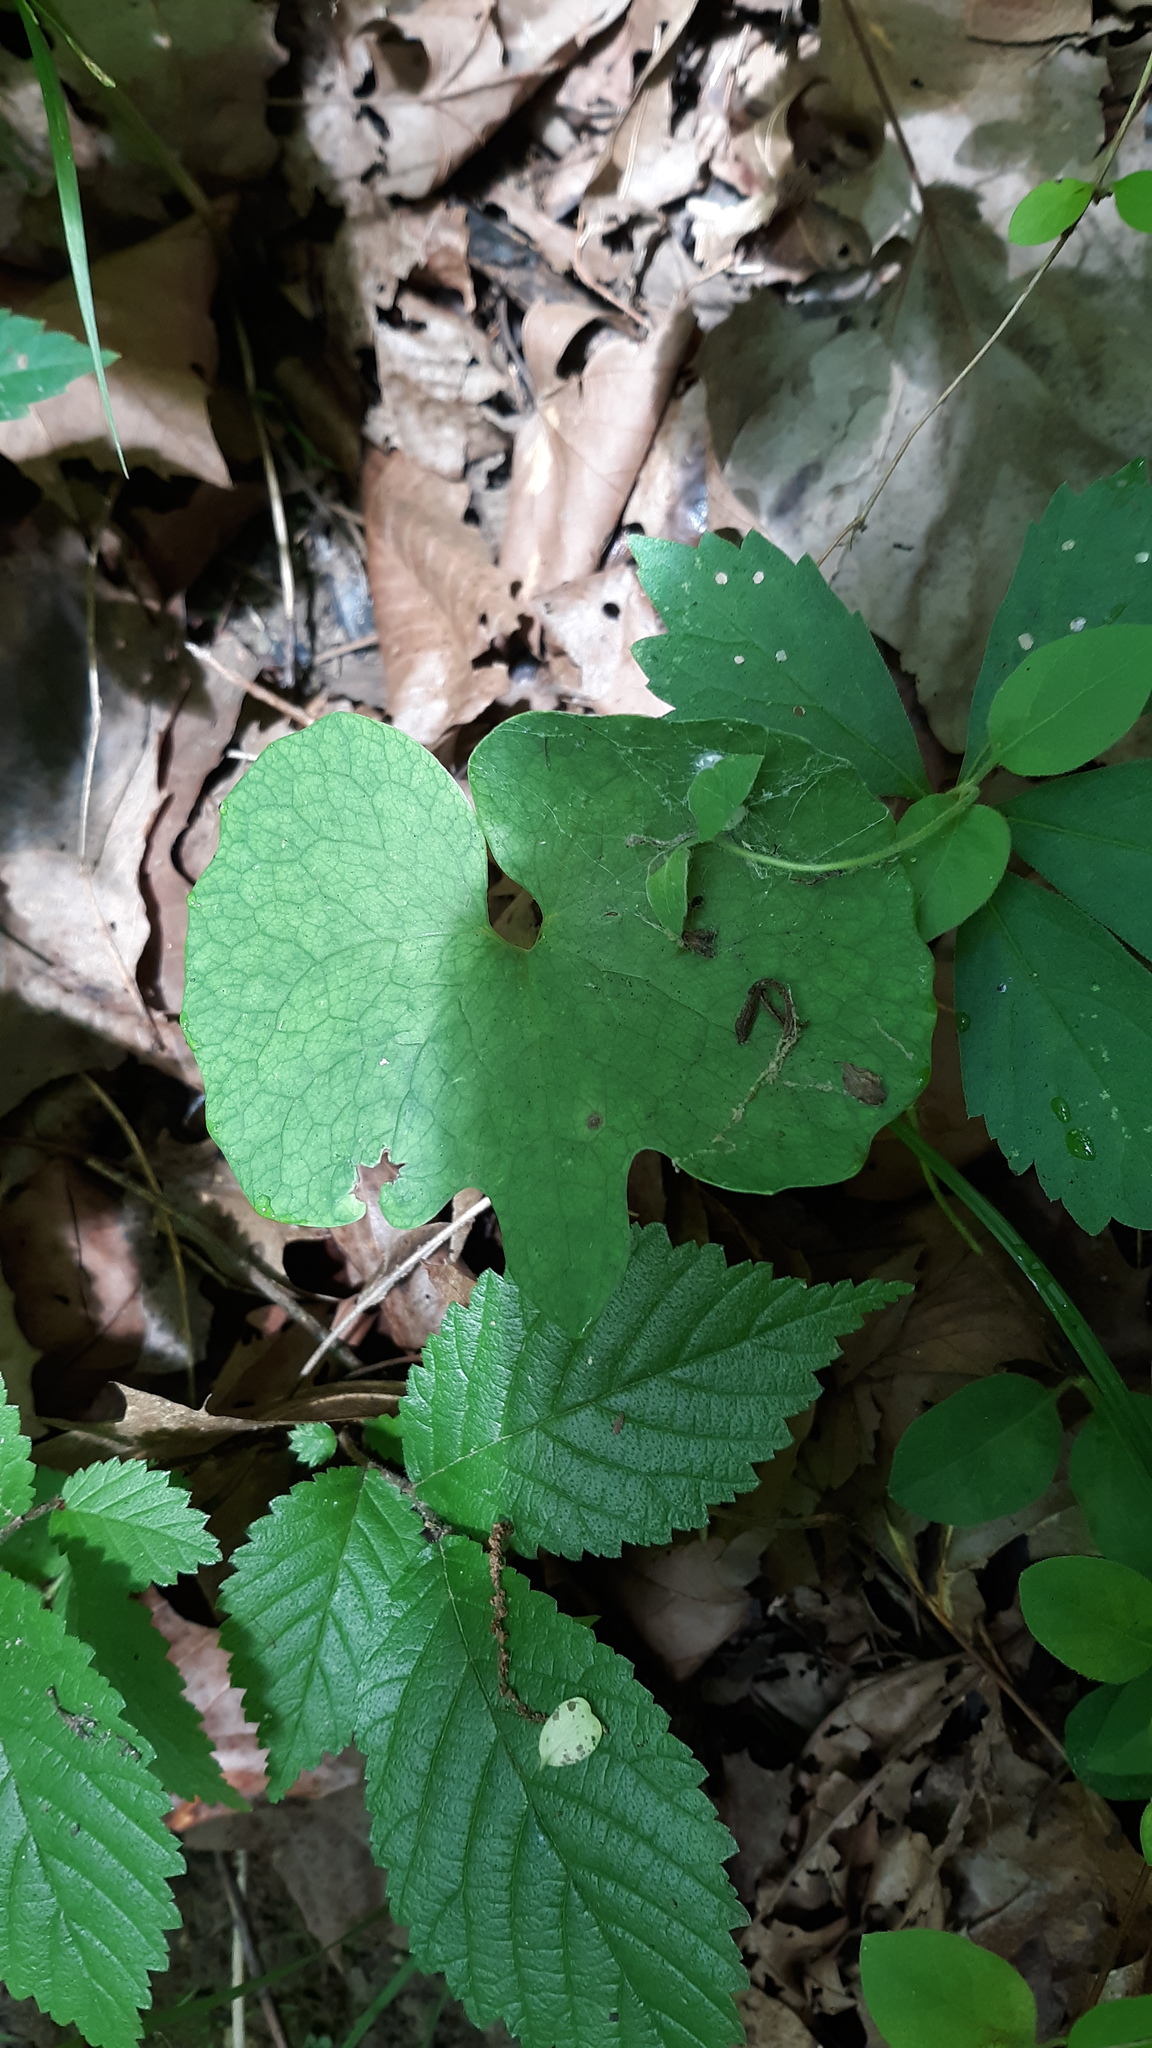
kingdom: Plantae
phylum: Tracheophyta
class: Magnoliopsida
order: Ranunculales
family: Papaveraceae
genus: Sanguinaria
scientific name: Sanguinaria canadensis
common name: Bloodroot
